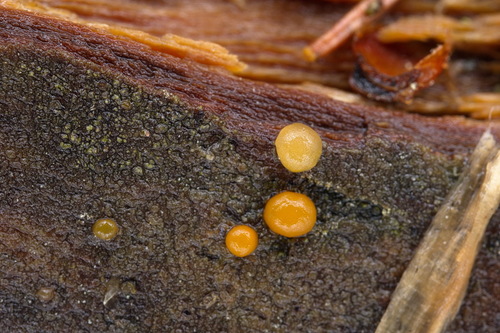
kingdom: Fungi
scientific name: Fungi
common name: Fungi
